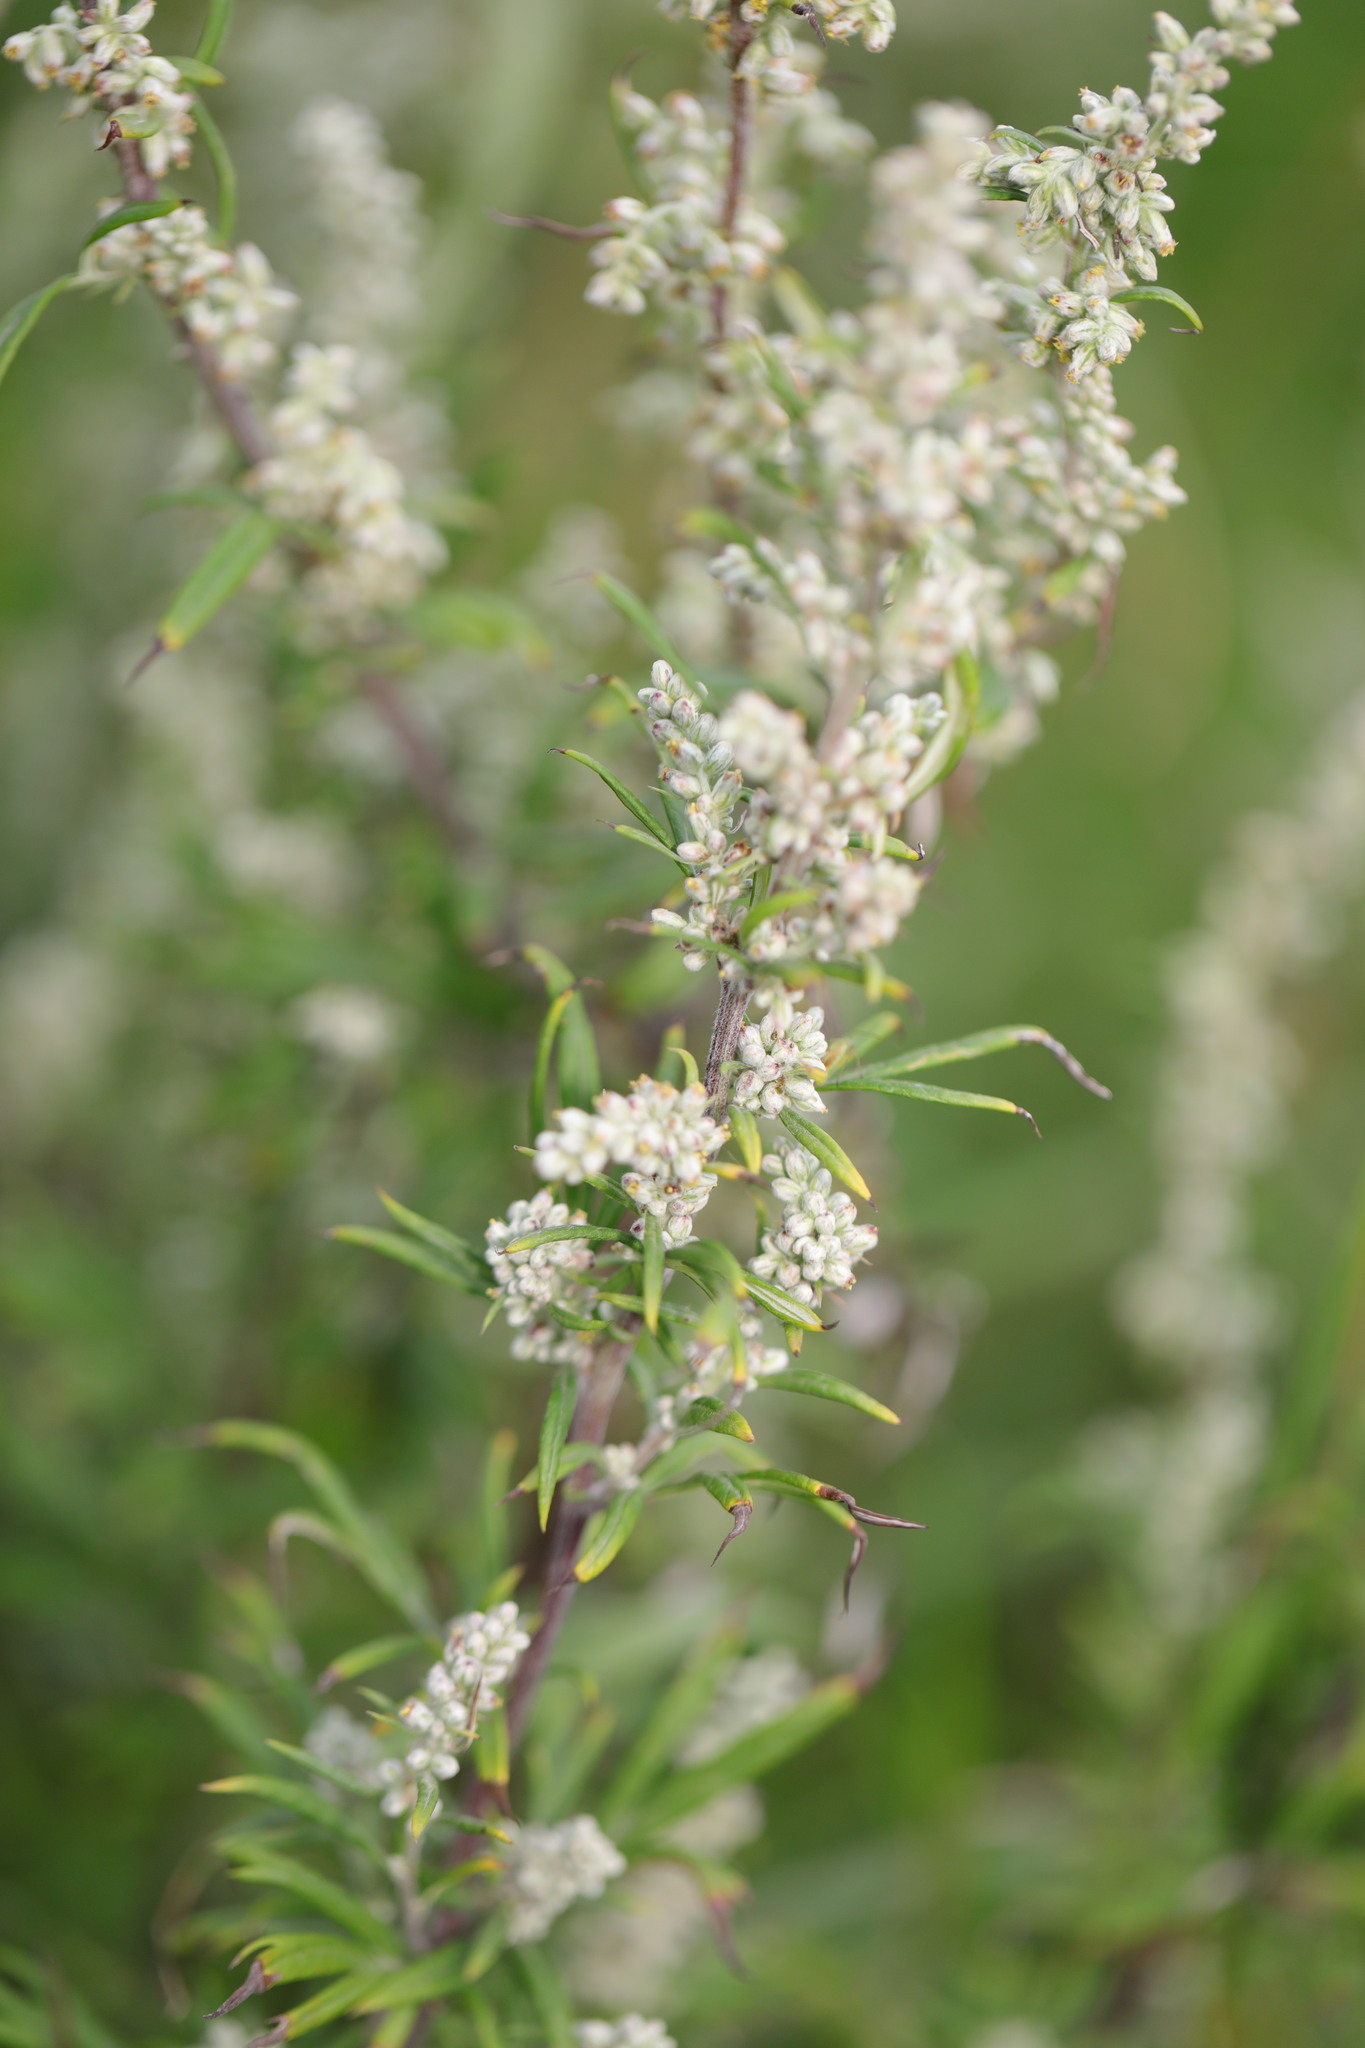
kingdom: Plantae
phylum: Tracheophyta
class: Magnoliopsida
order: Asterales
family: Asteraceae
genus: Artemisia
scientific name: Artemisia vulgaris
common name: Mugwort
